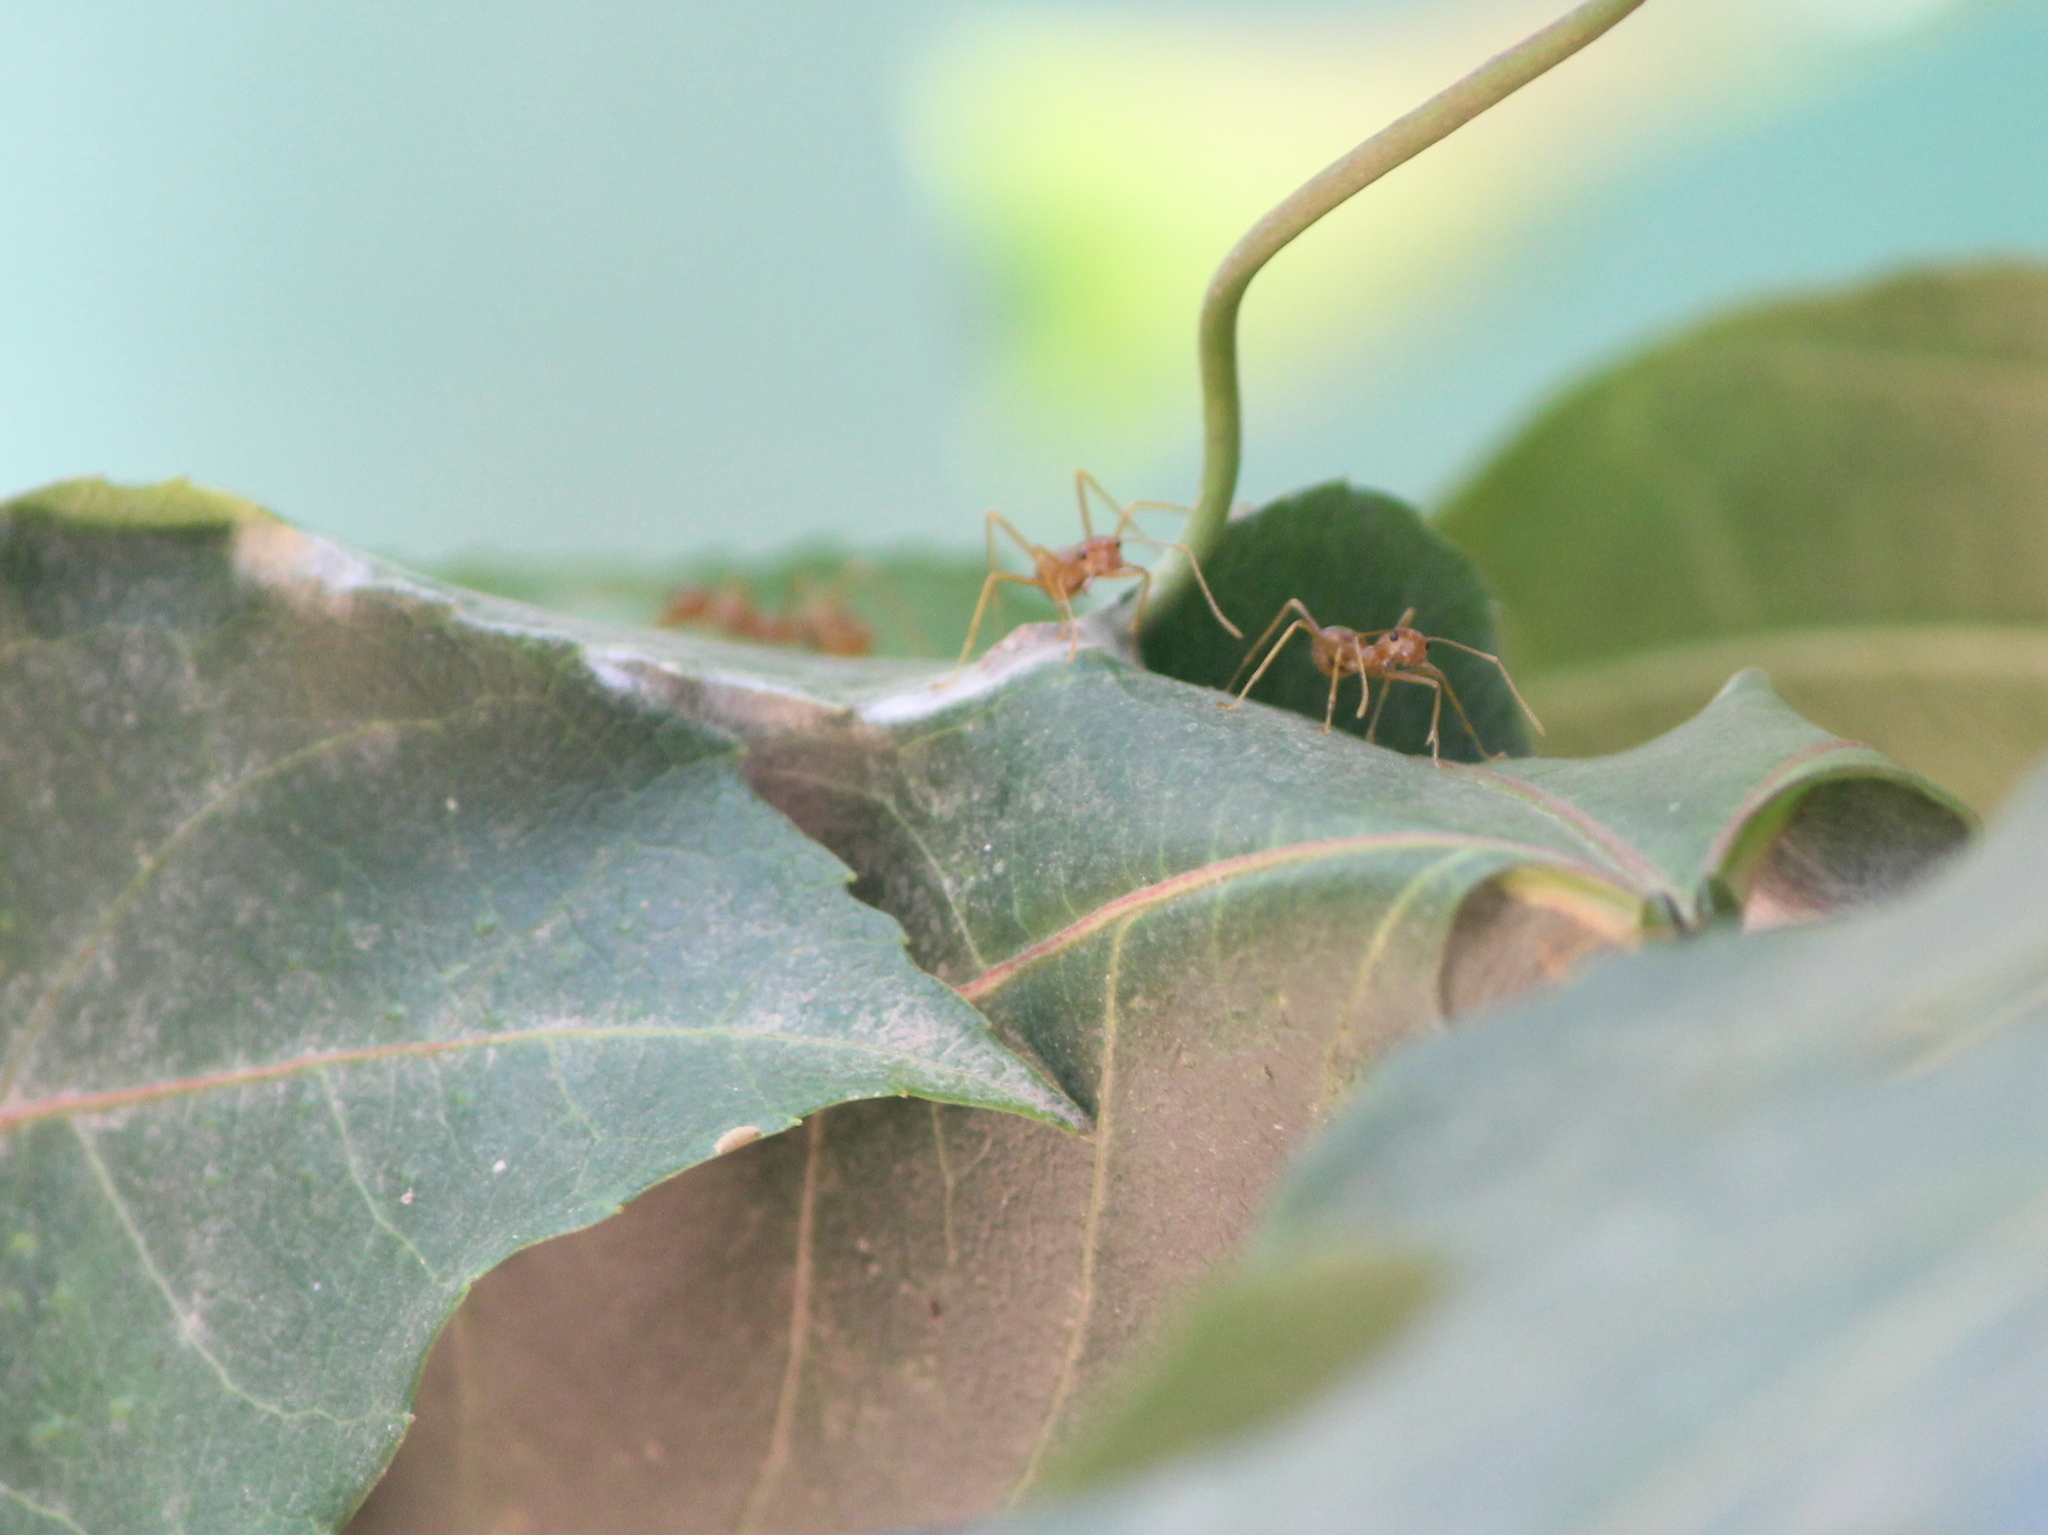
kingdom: Animalia
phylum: Arthropoda
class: Insecta
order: Hymenoptera
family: Formicidae
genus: Oecophylla
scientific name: Oecophylla smaragdina
